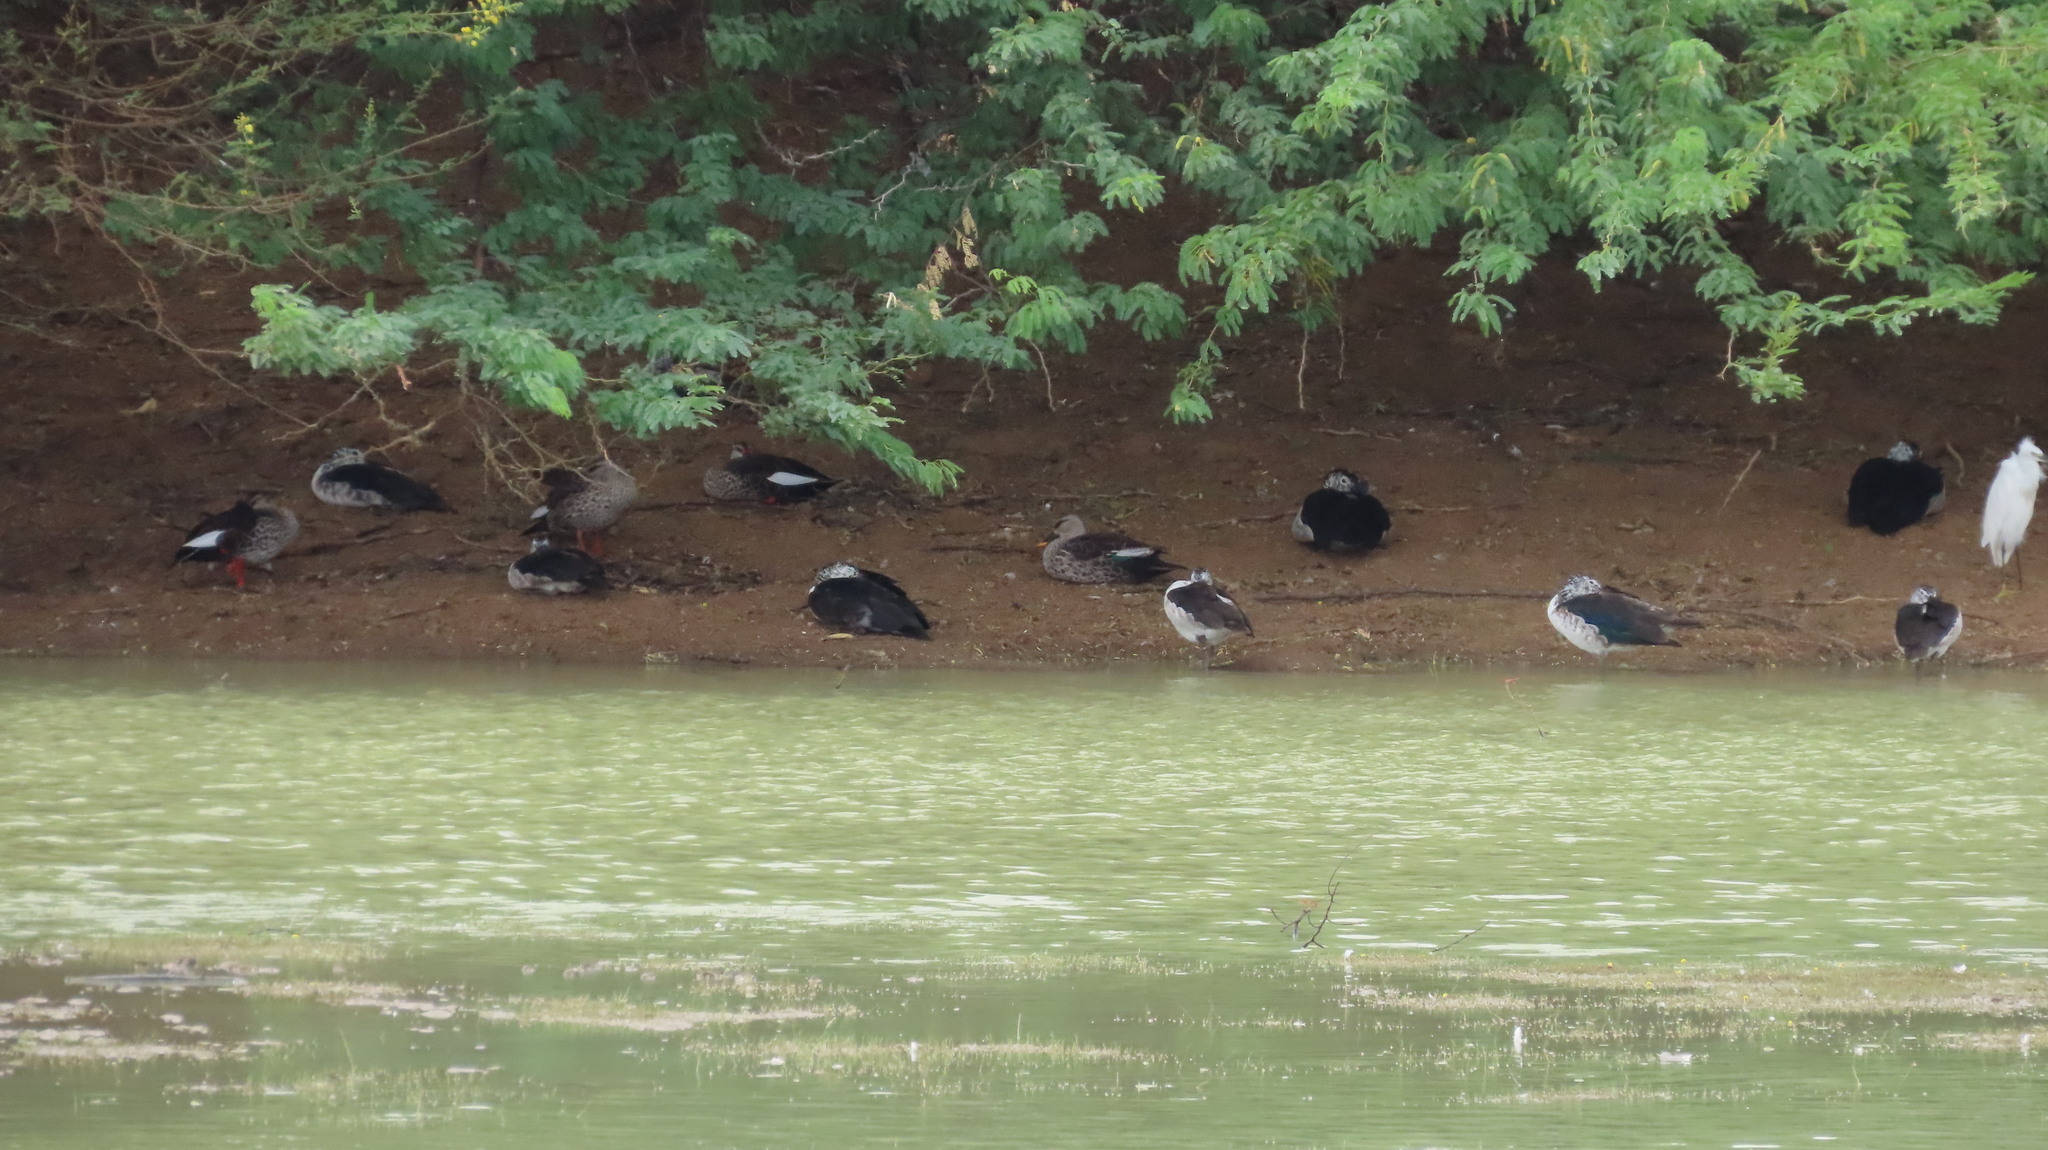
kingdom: Animalia
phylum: Chordata
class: Aves
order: Anseriformes
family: Anatidae
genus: Sarkidiornis
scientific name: Sarkidiornis melanotos
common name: Comb duck
